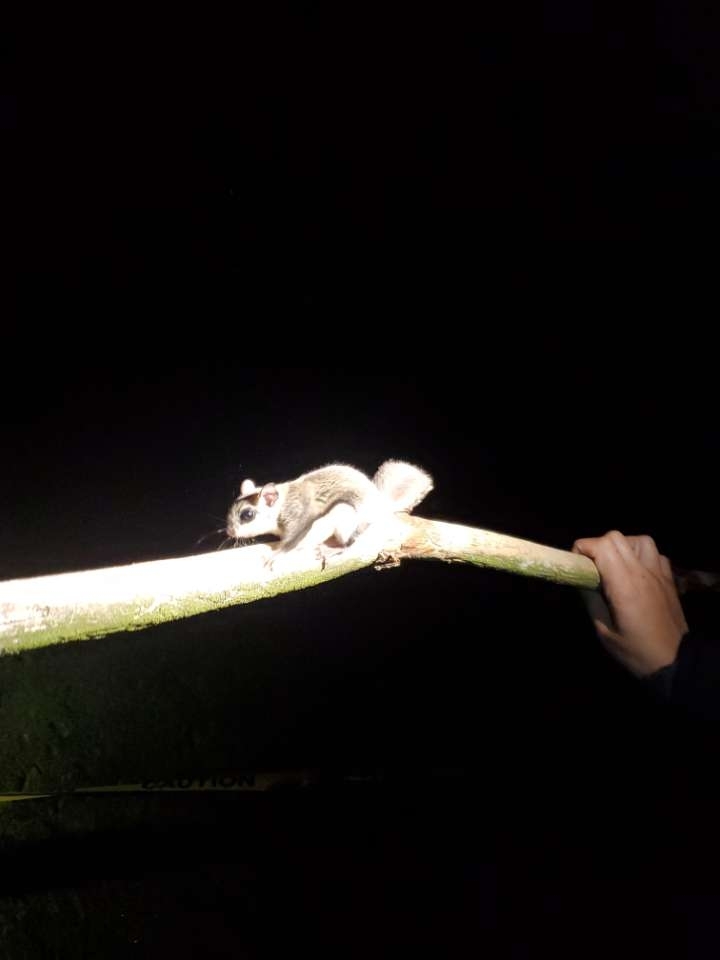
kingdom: Animalia
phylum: Chordata
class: Mammalia
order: Rodentia
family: Sciuridae
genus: Glaucomys
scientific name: Glaucomys volans
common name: Southern flying squirrel
